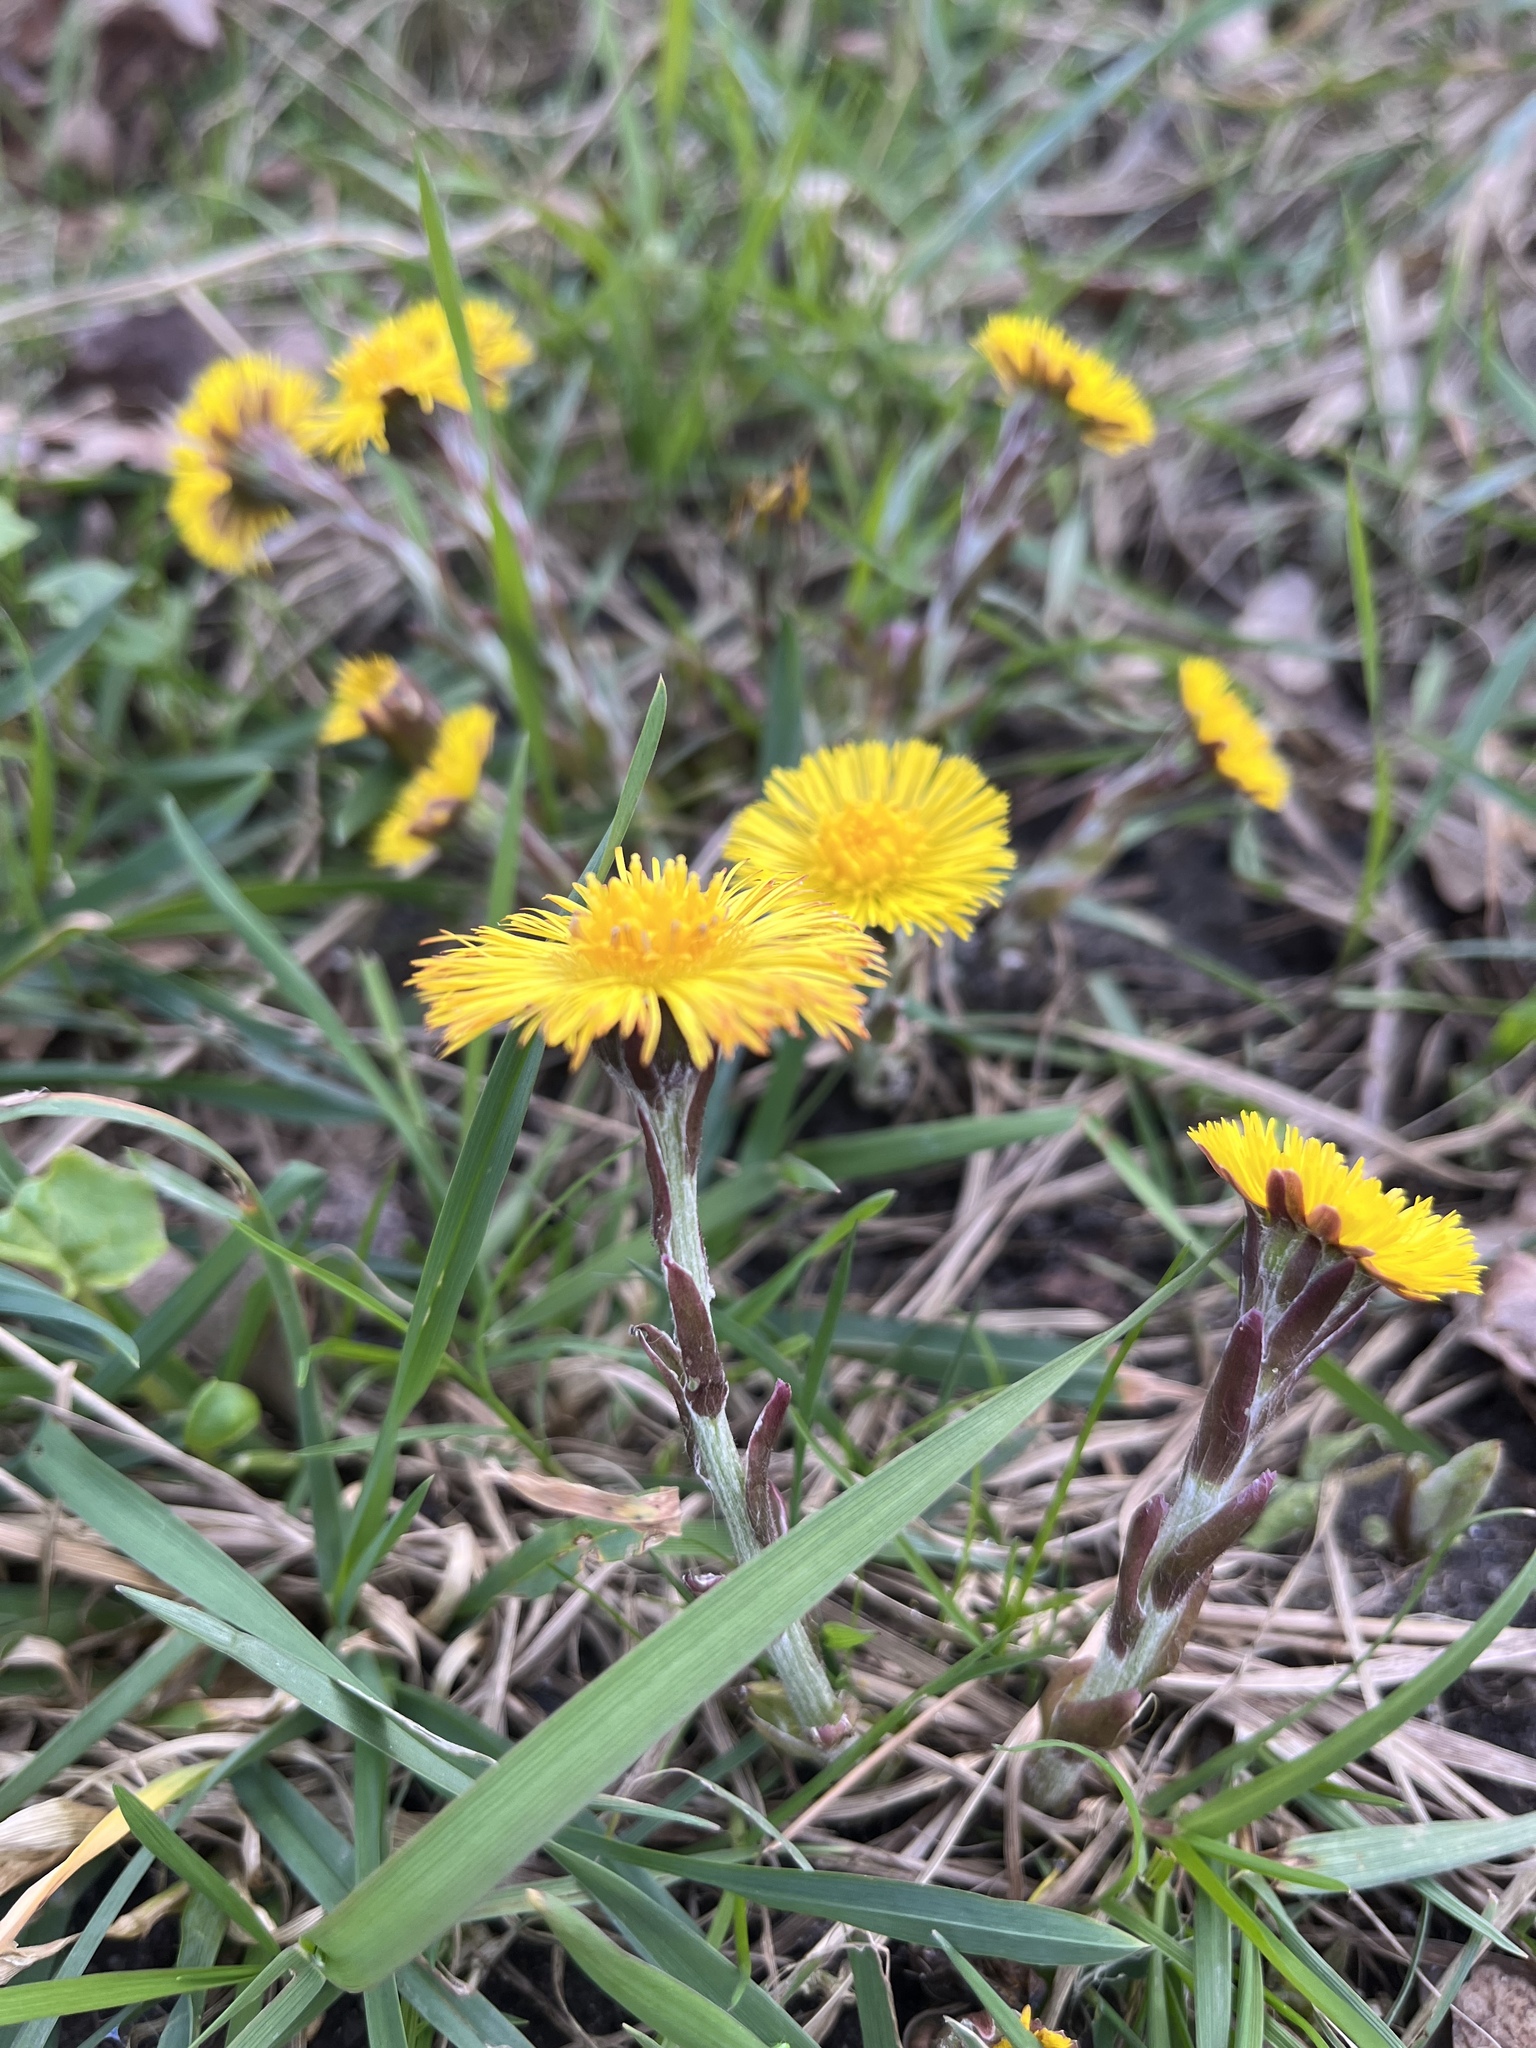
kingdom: Plantae
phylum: Tracheophyta
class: Magnoliopsida
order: Asterales
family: Asteraceae
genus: Tussilago
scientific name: Tussilago farfara
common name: Coltsfoot
